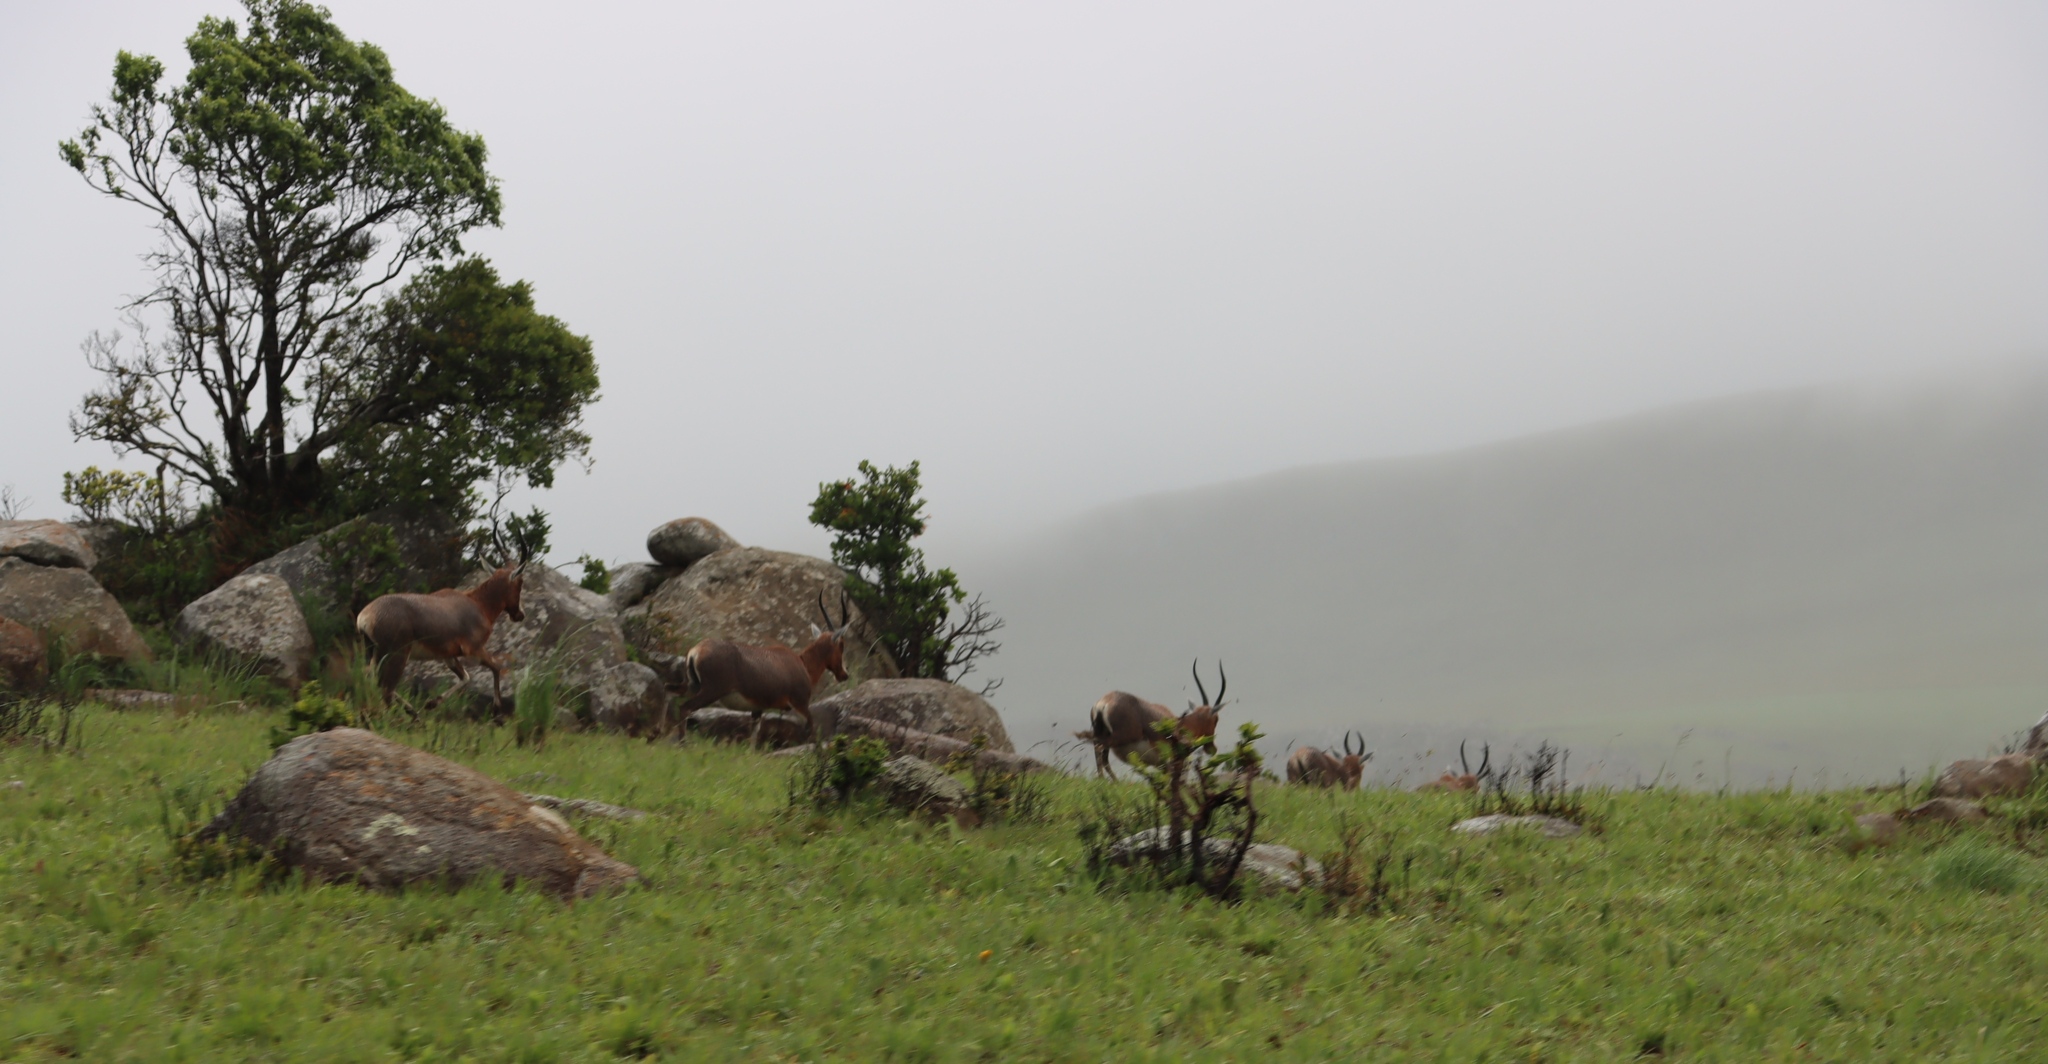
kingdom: Animalia
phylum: Chordata
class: Mammalia
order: Artiodactyla
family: Bovidae
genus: Damaliscus
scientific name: Damaliscus pygargus
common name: Bontebok
